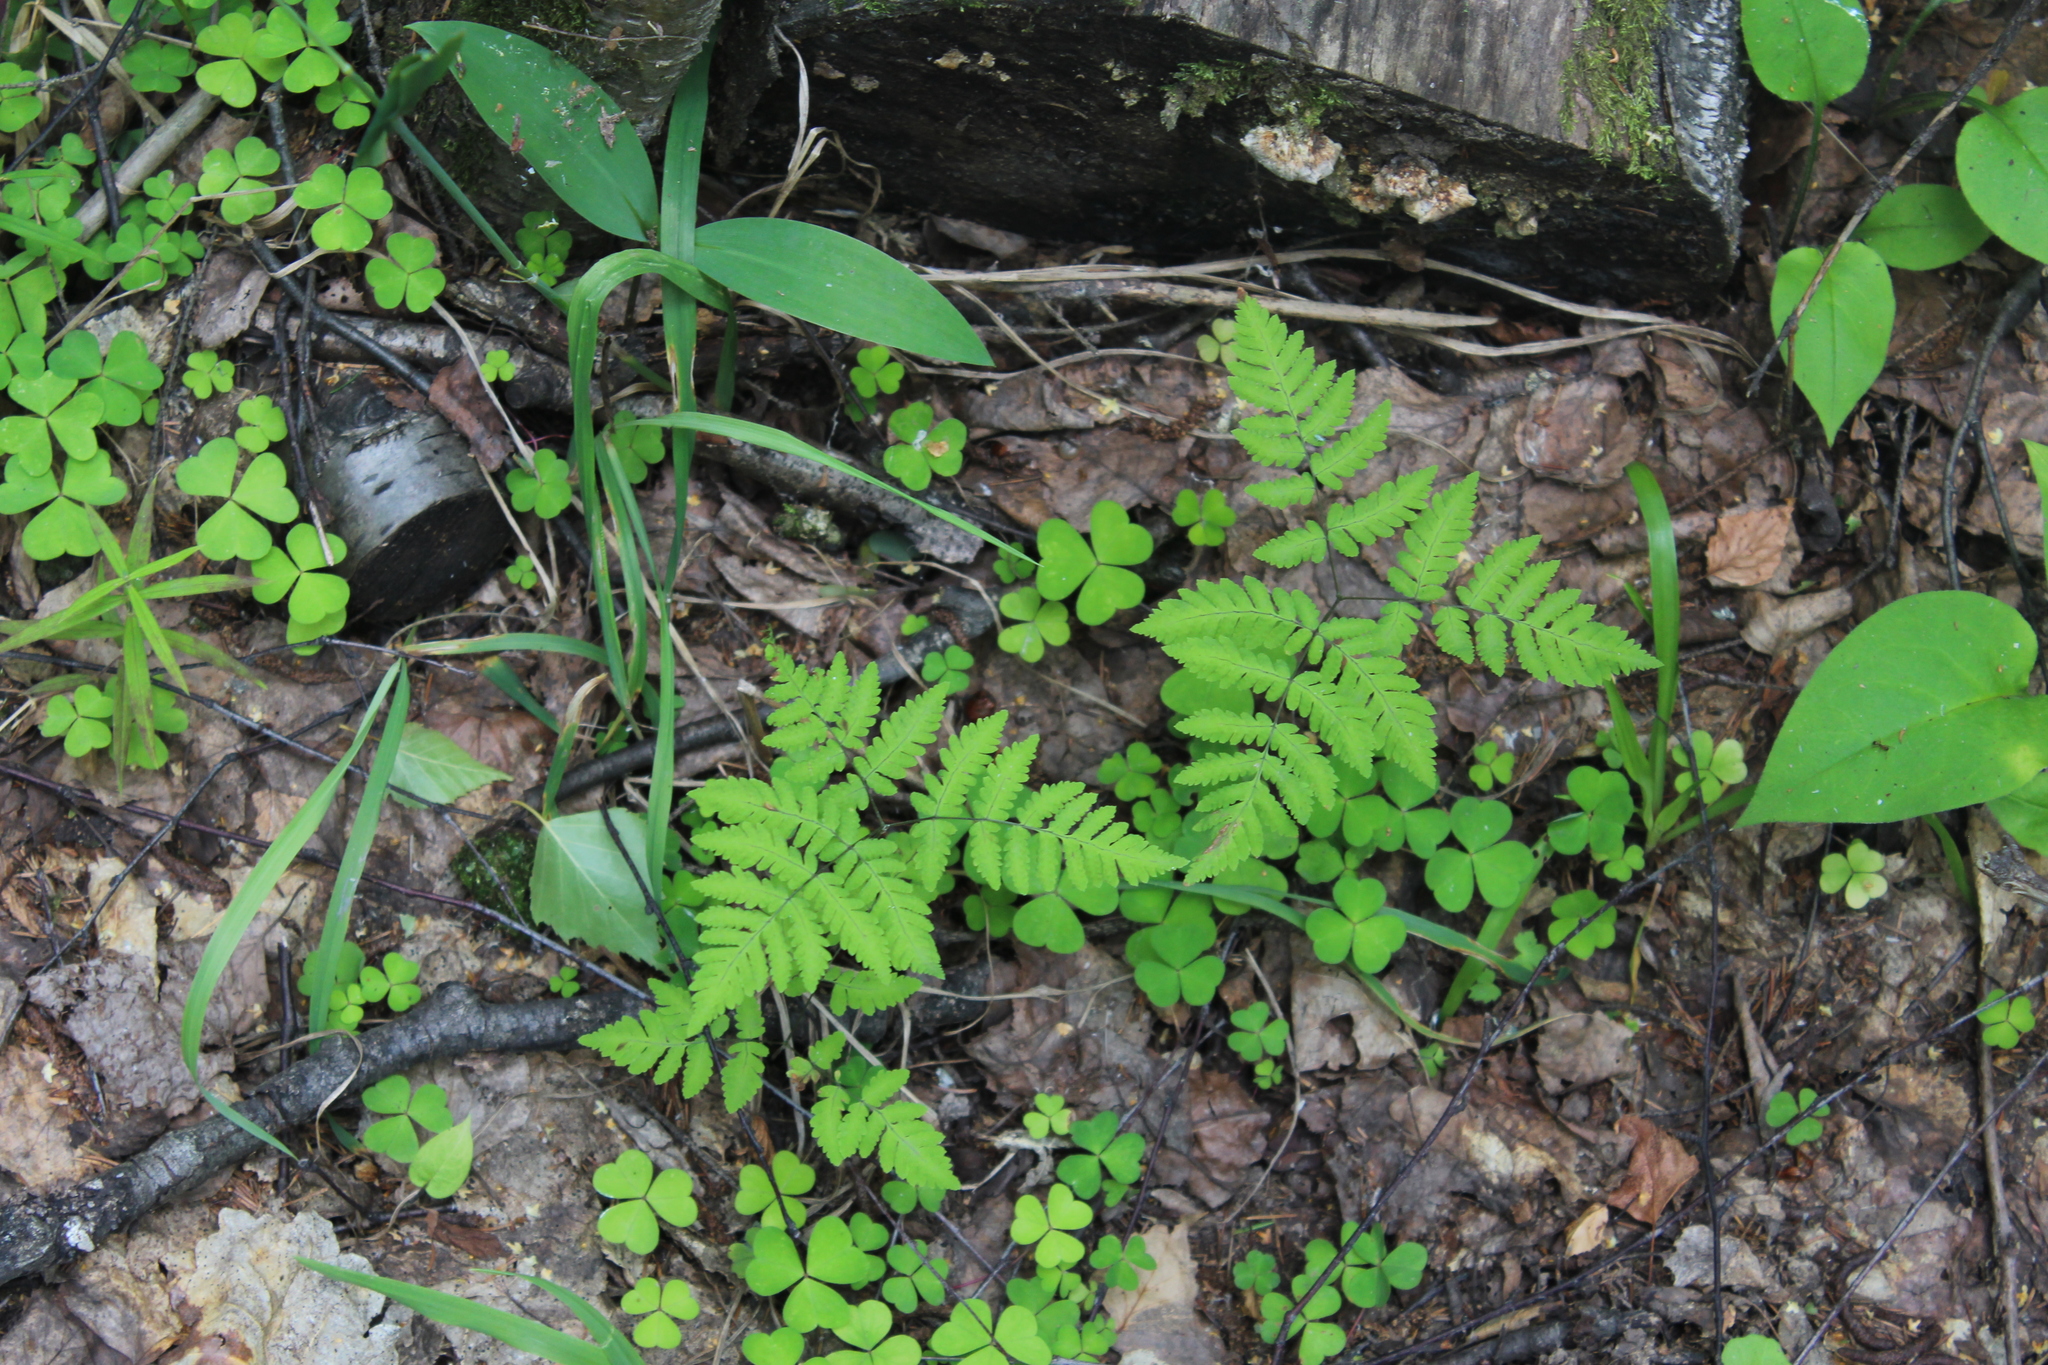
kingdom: Plantae
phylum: Tracheophyta
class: Polypodiopsida
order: Polypodiales
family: Cystopteridaceae
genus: Gymnocarpium
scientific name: Gymnocarpium dryopteris
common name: Oak fern
